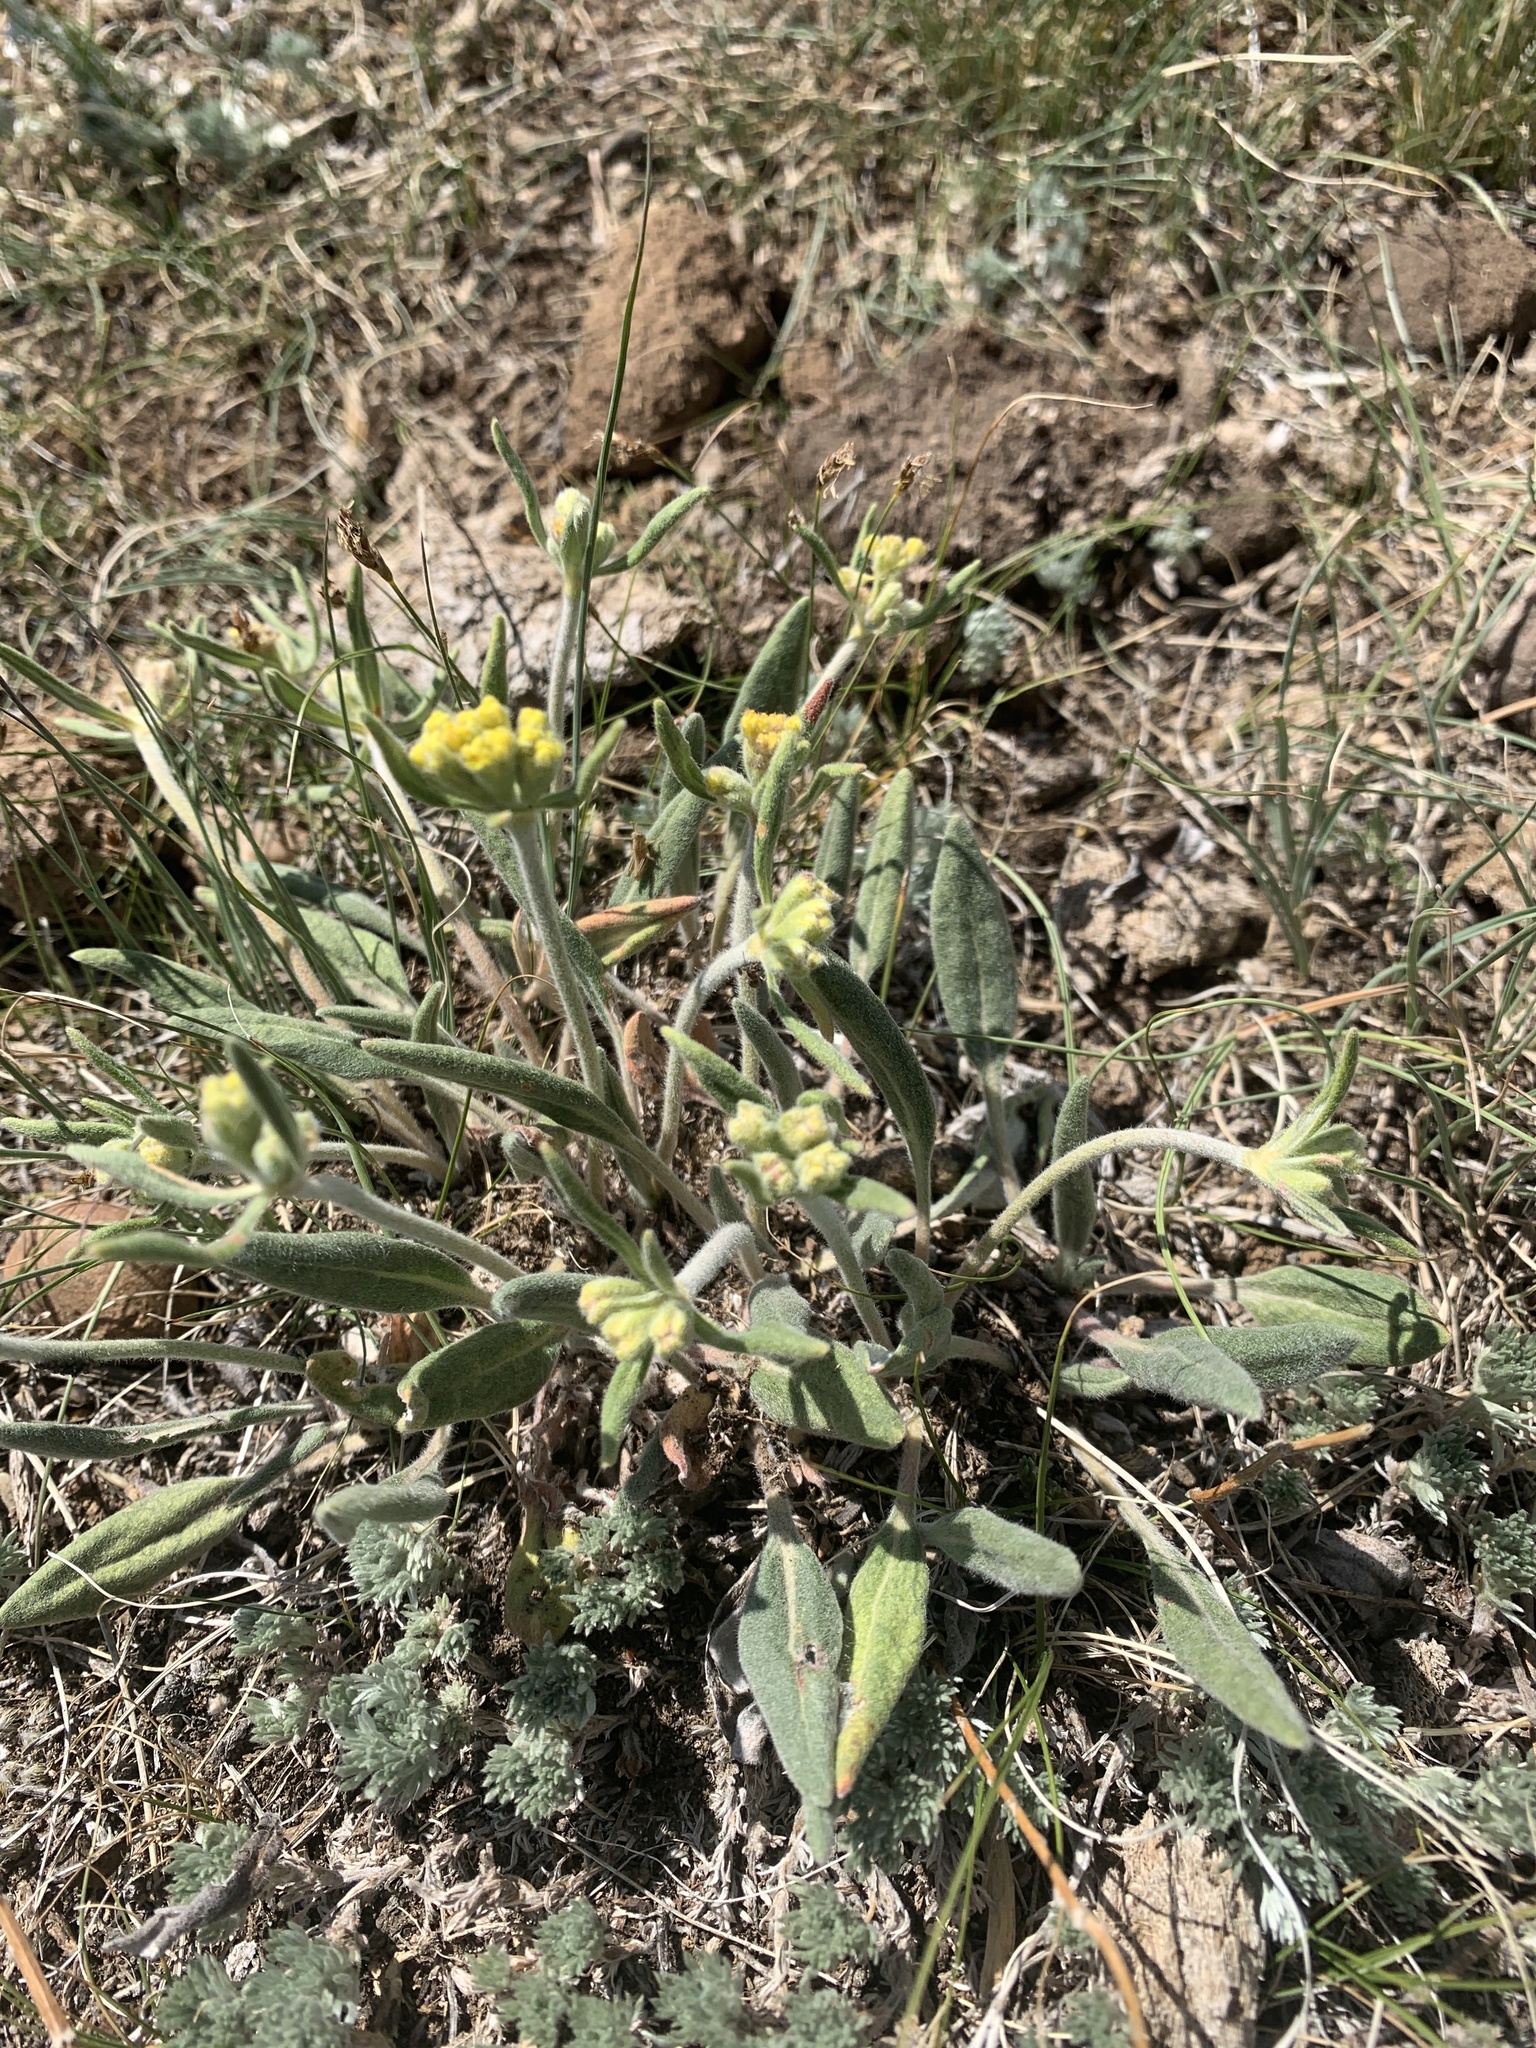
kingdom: Plantae
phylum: Tracheophyta
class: Magnoliopsida
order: Caryophyllales
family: Polygonaceae
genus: Eriogonum
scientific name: Eriogonum flavum
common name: Alpine golden wild buckwheat
